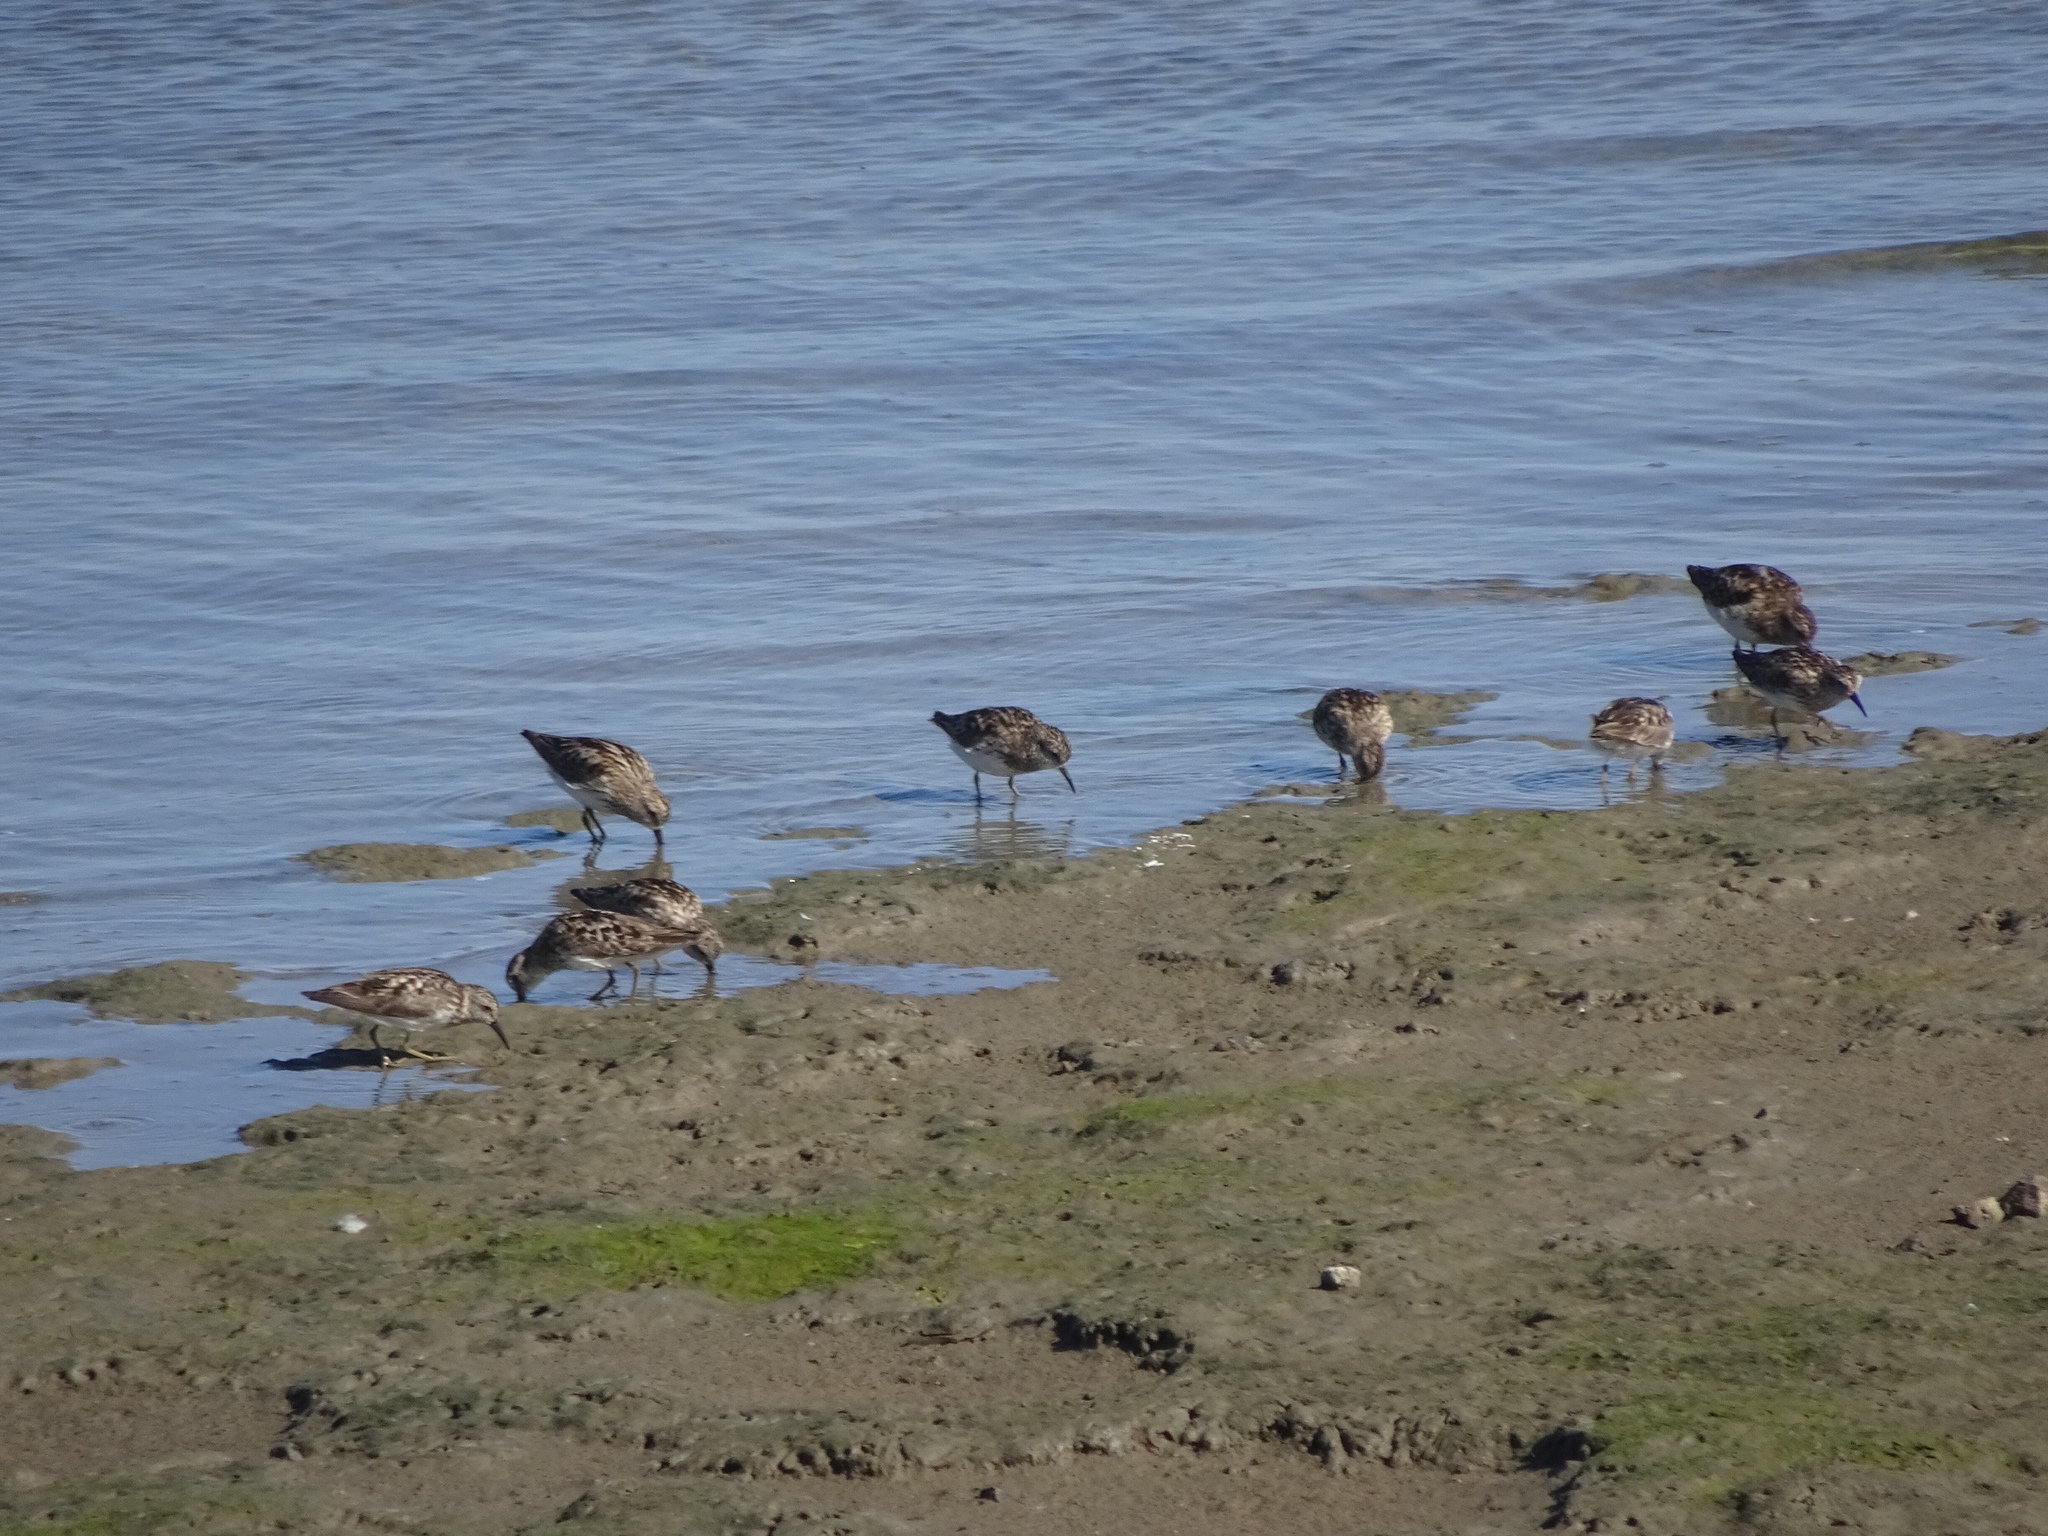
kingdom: Animalia
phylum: Chordata
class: Aves
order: Charadriiformes
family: Scolopacidae
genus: Calidris
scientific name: Calidris mauri
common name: Western sandpiper
